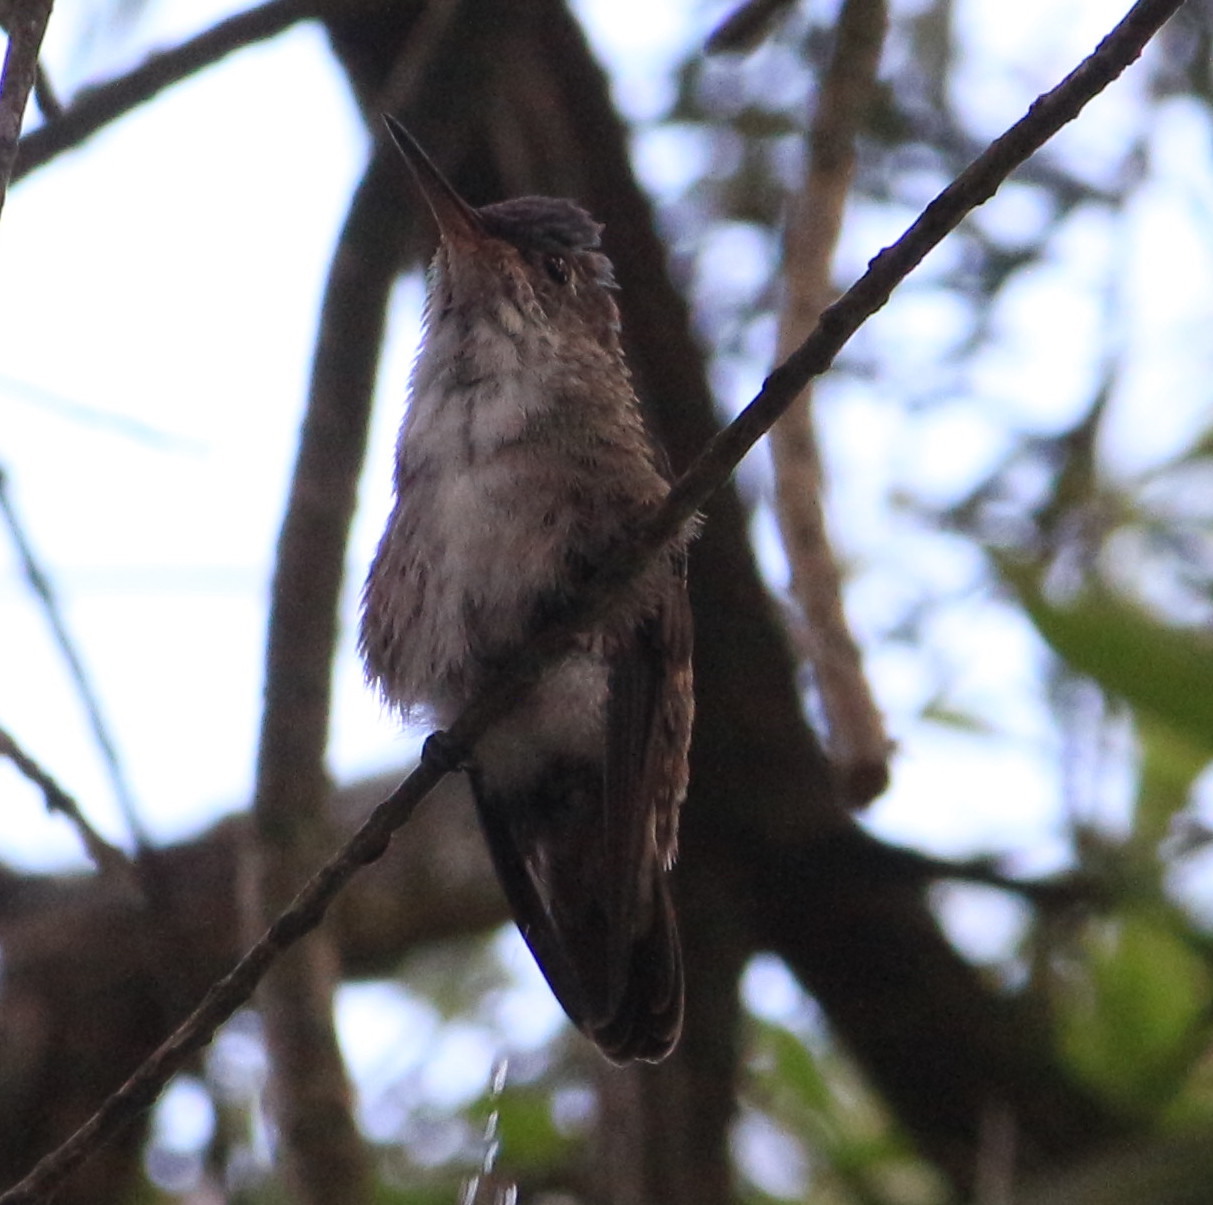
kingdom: Animalia
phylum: Chordata
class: Aves
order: Apodiformes
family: Trochilidae
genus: Saucerottia
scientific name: Saucerottia cyanocephala
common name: Azure-crowned hummingbird
